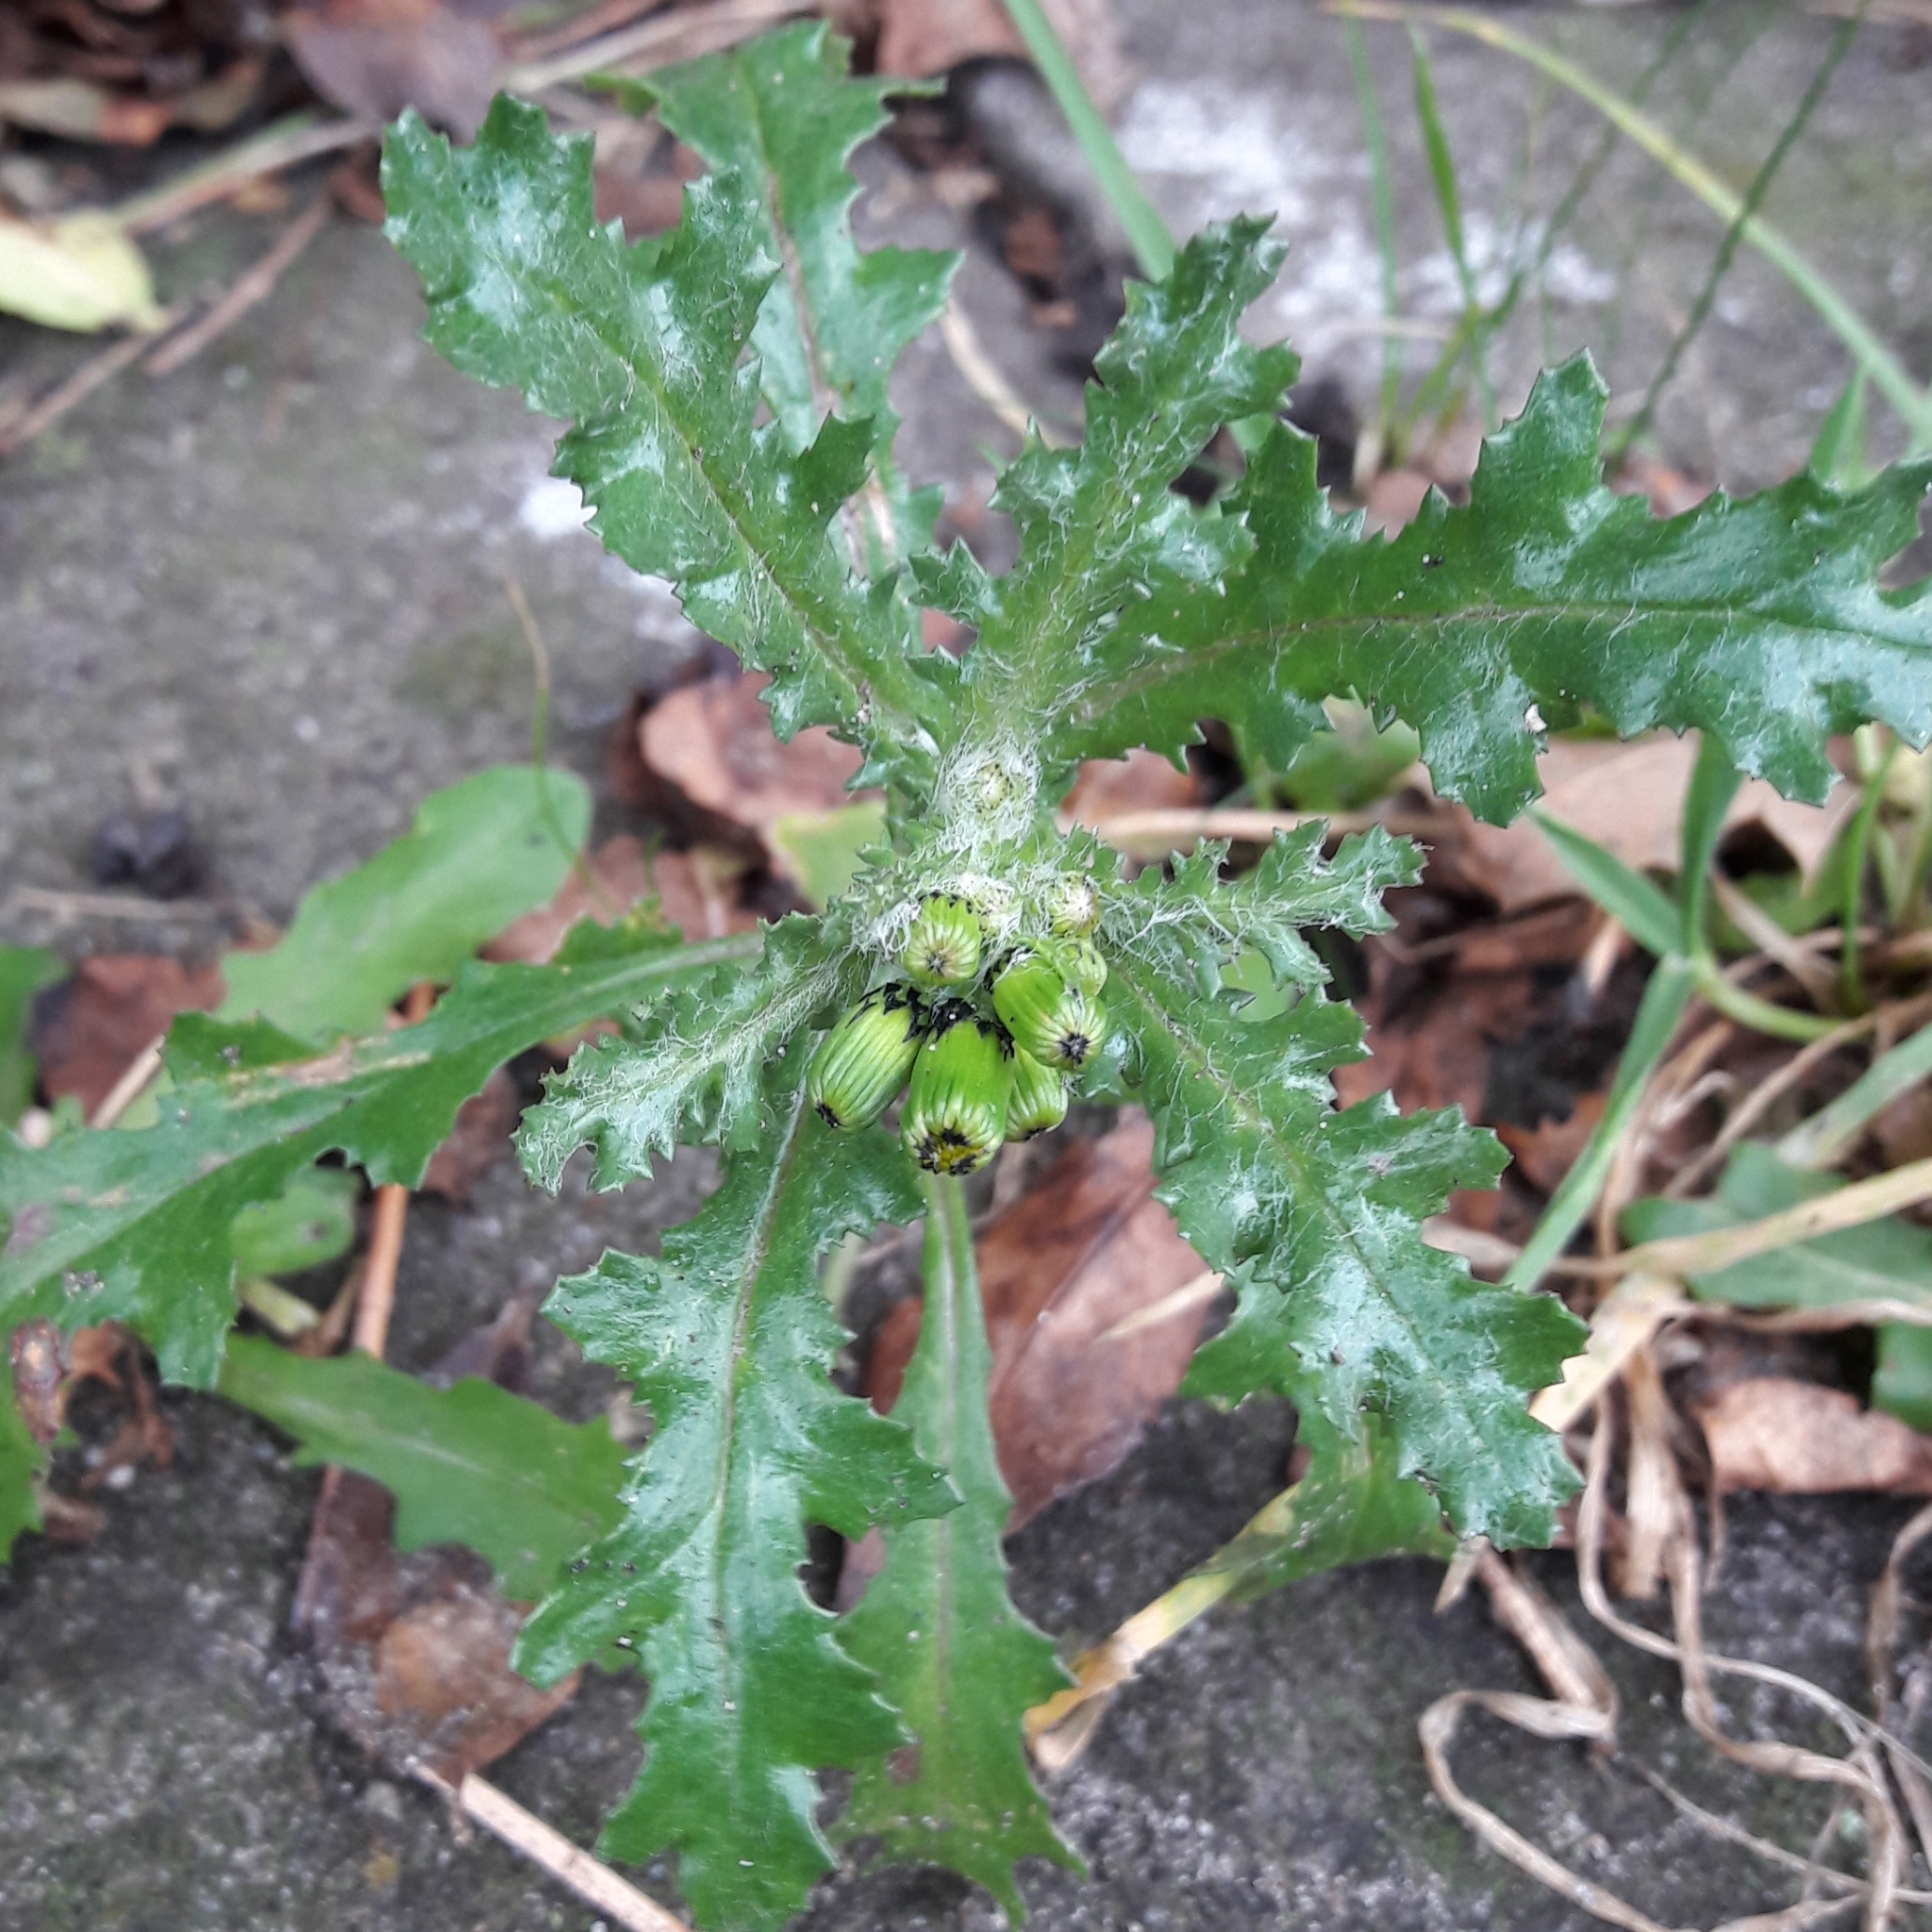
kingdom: Plantae
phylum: Tracheophyta
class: Magnoliopsida
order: Asterales
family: Asteraceae
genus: Senecio
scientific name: Senecio vulgaris
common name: Old-man-in-the-spring
